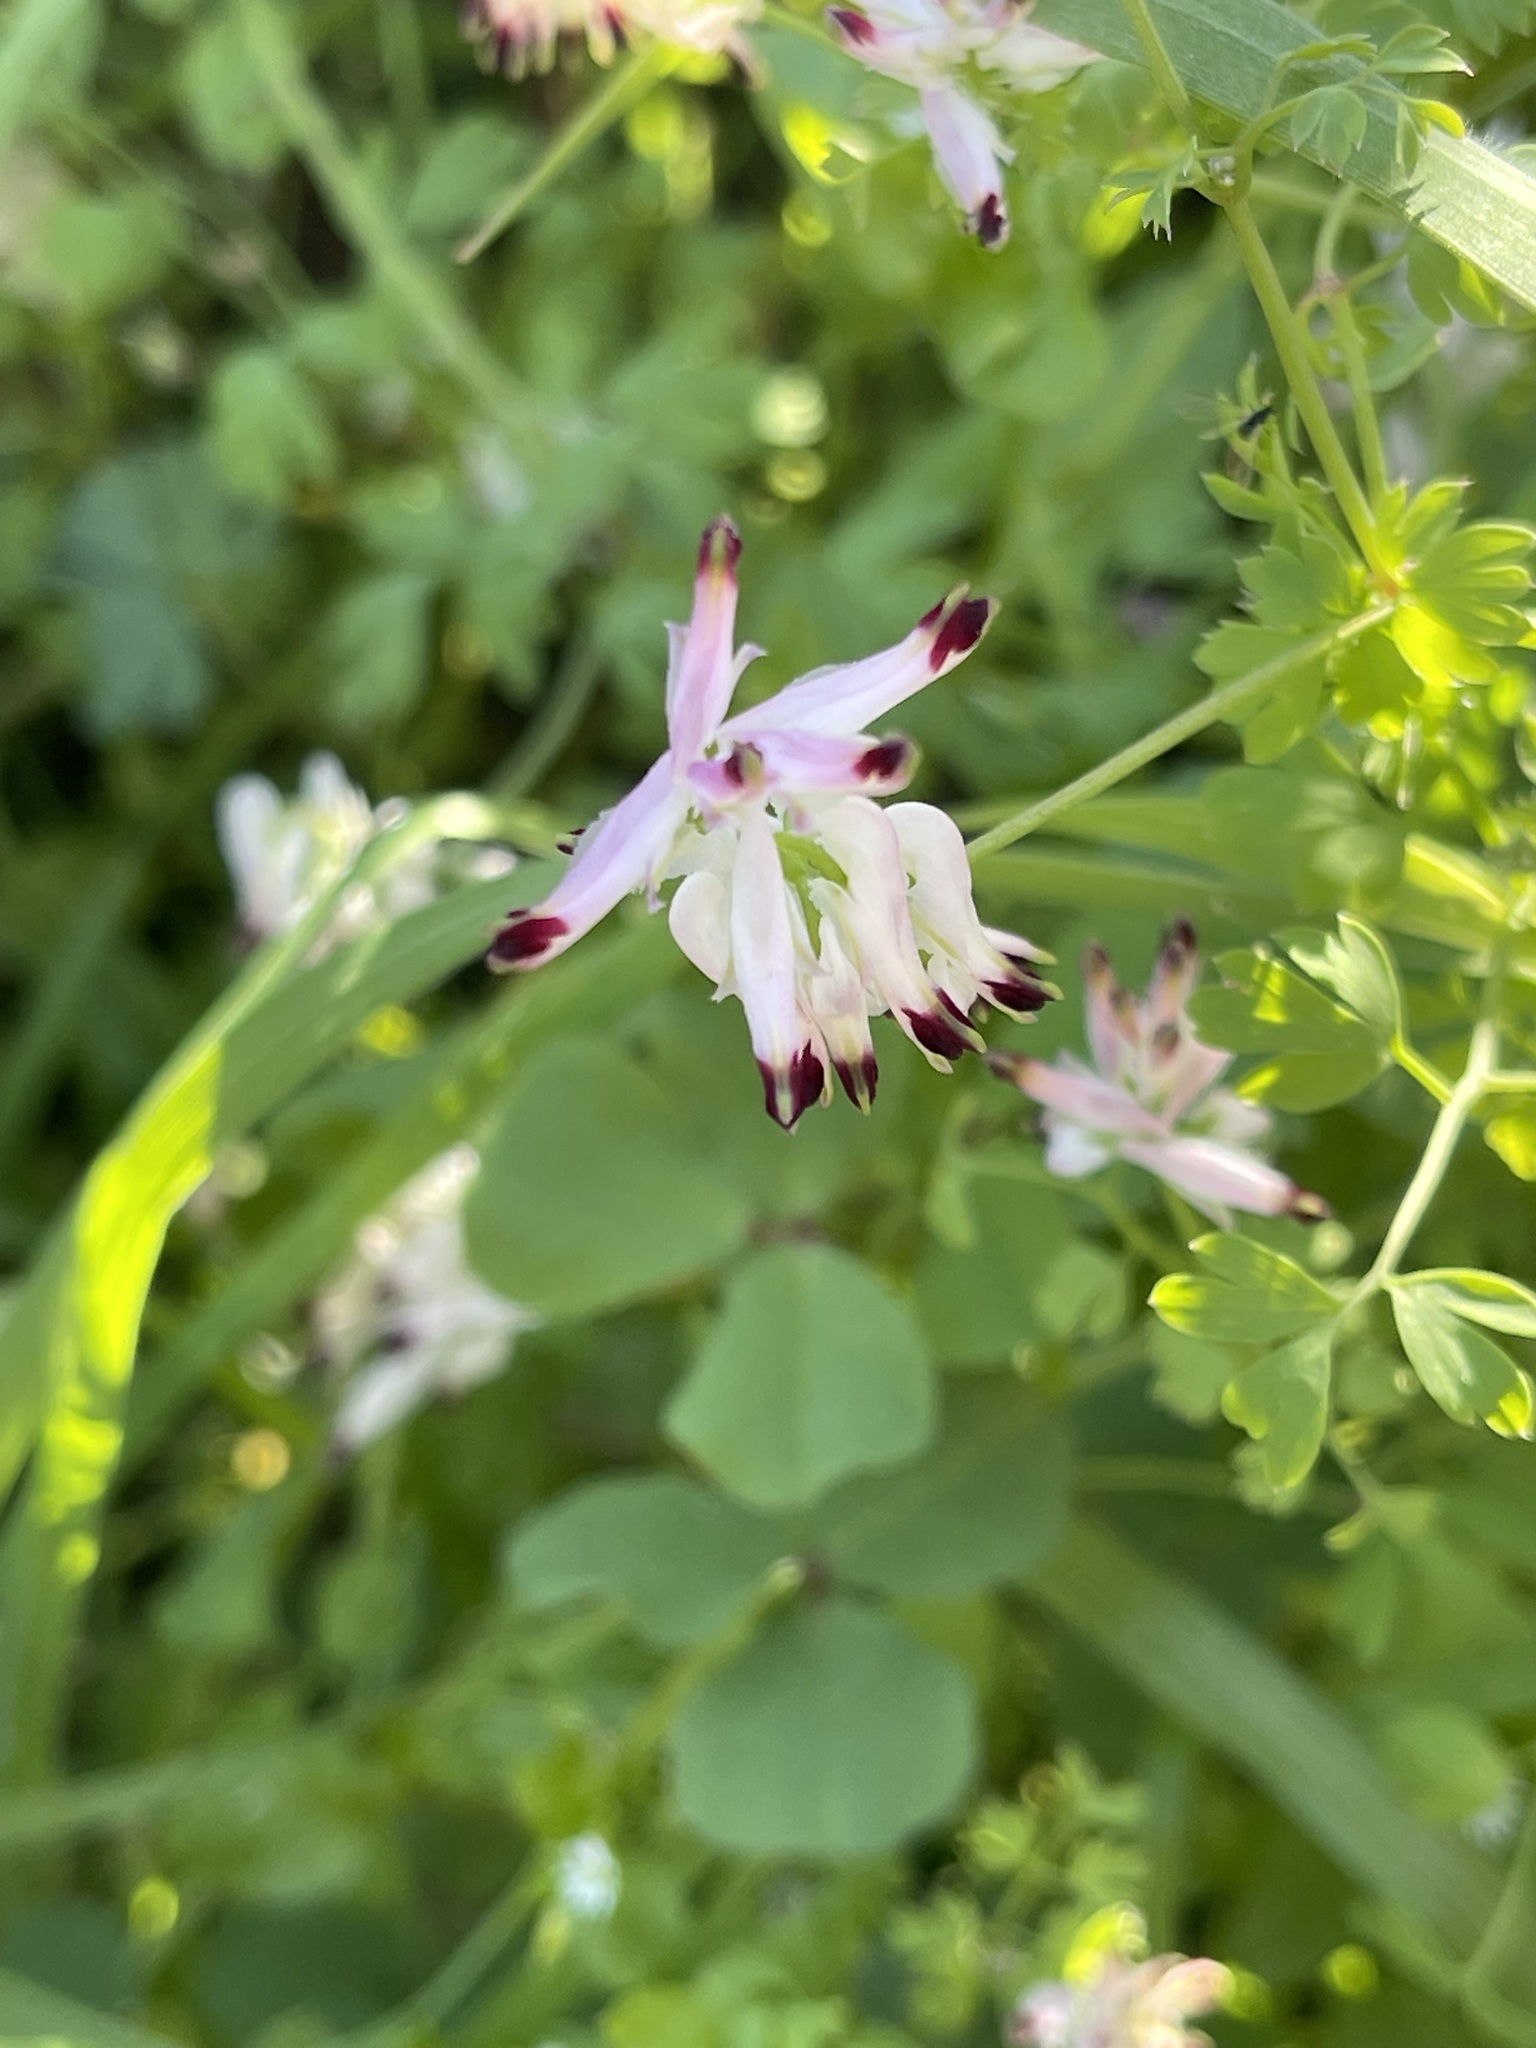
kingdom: Plantae
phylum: Tracheophyta
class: Magnoliopsida
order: Ranunculales
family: Papaveraceae
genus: Fumaria
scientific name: Fumaria capreolata
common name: White ramping-fumitory
